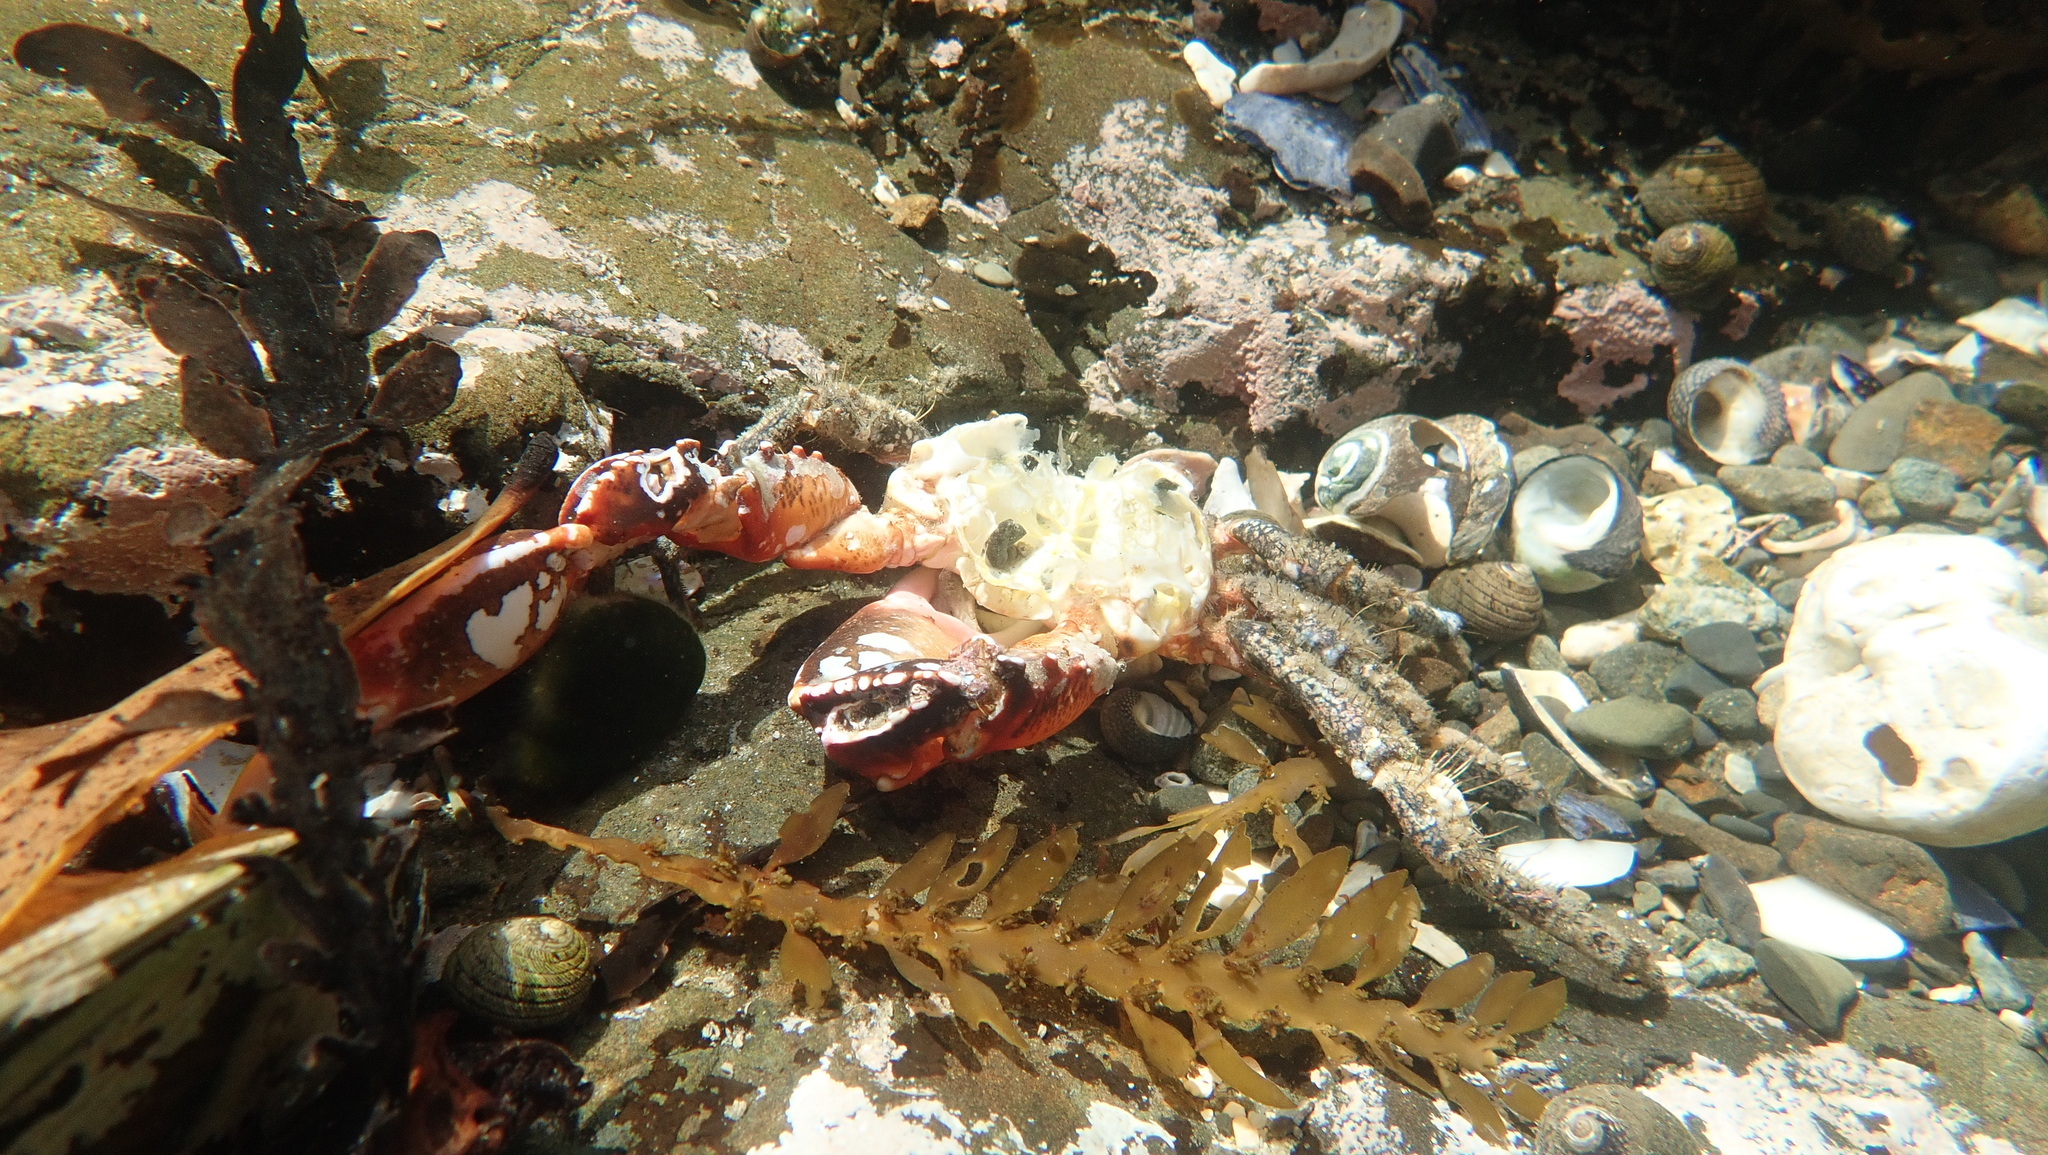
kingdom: Animalia
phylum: Arthropoda
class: Malacostraca
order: Decapoda
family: Majidae
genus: Notomithrax
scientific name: Notomithrax ursus
